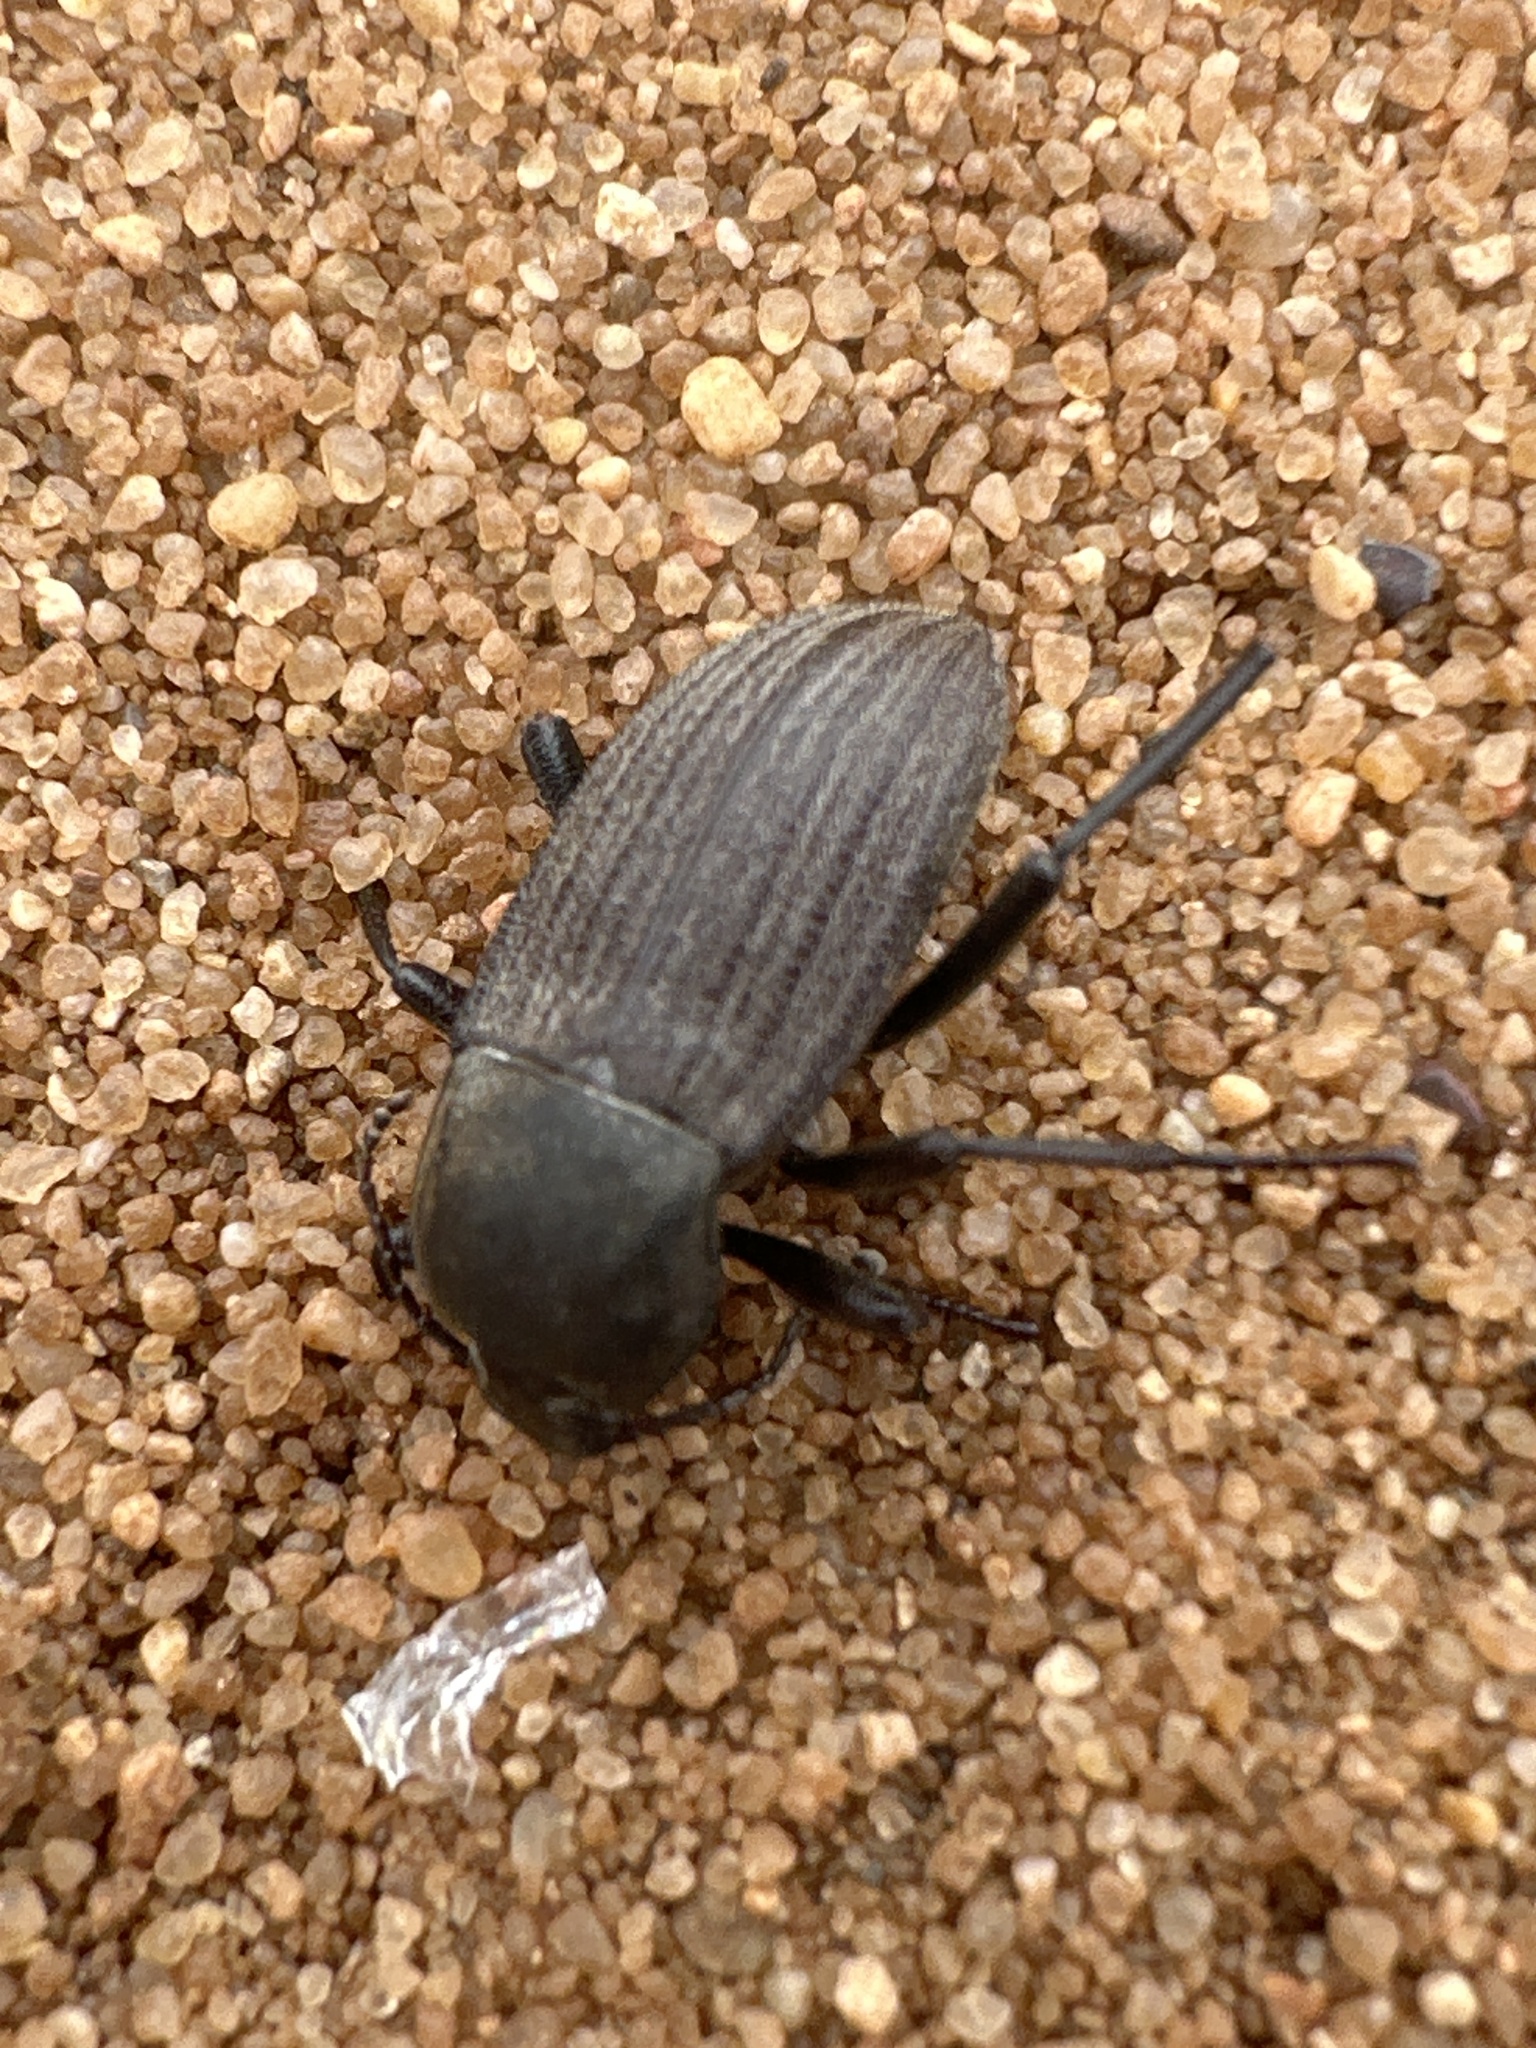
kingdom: Animalia
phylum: Arthropoda
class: Insecta
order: Coleoptera
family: Tenebrionidae
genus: Eleodes
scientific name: Eleodes tricostata
